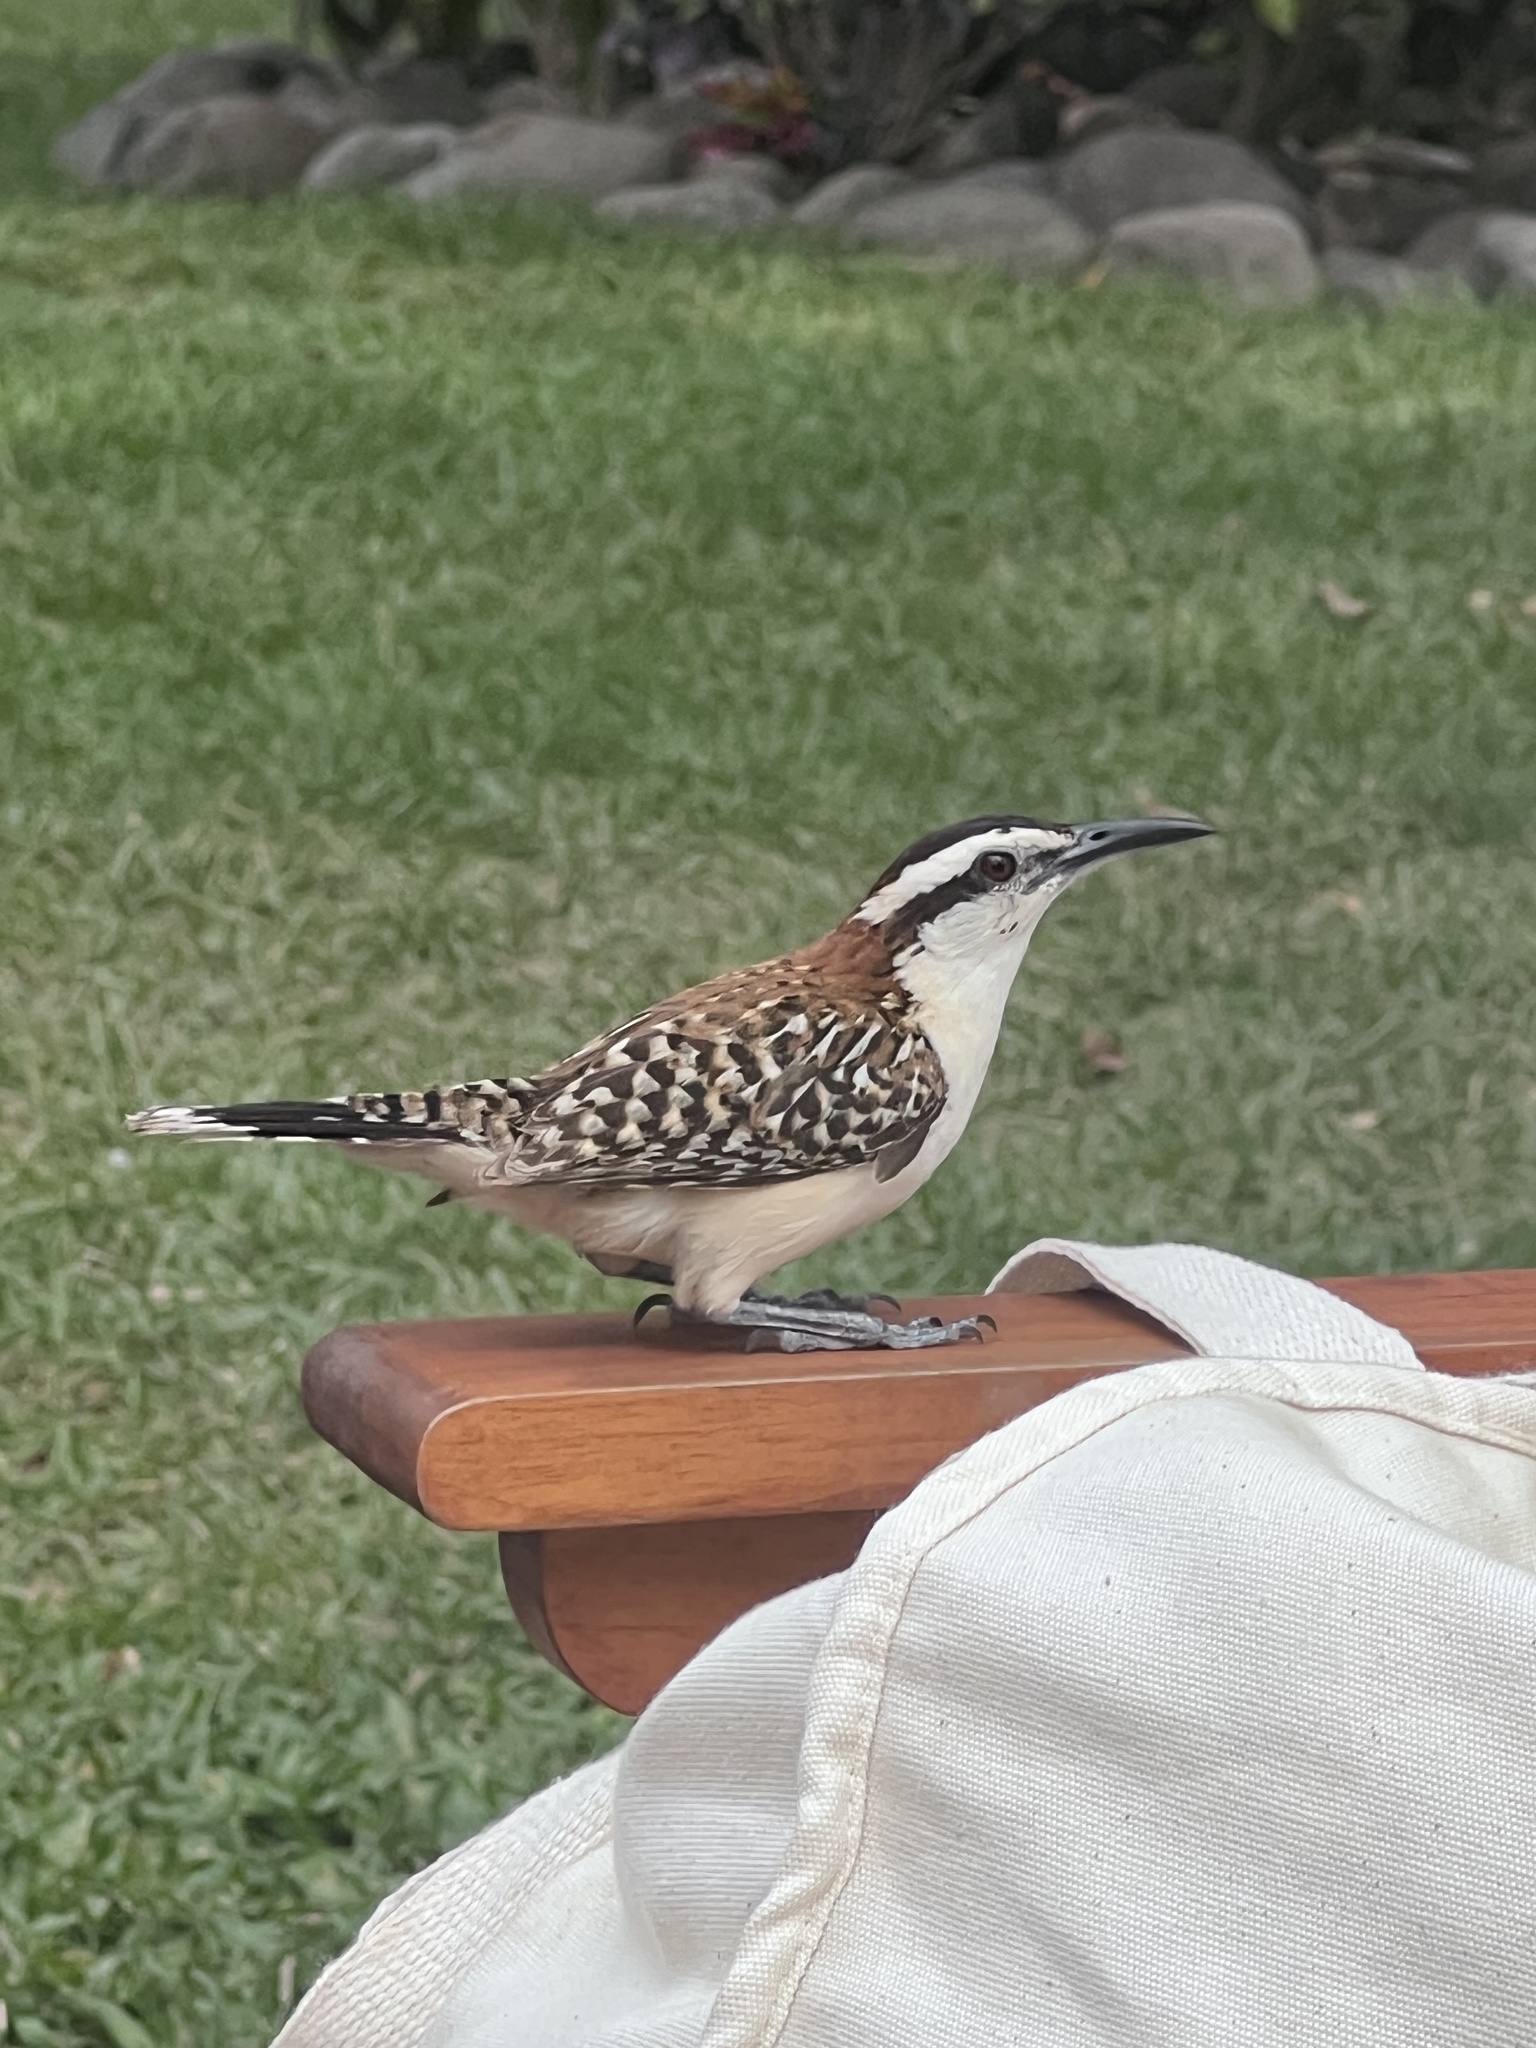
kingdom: Animalia
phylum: Chordata
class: Aves
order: Passeriformes
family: Troglodytidae
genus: Campylorhynchus
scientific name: Campylorhynchus rufinucha
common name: Rufous-naped wren
